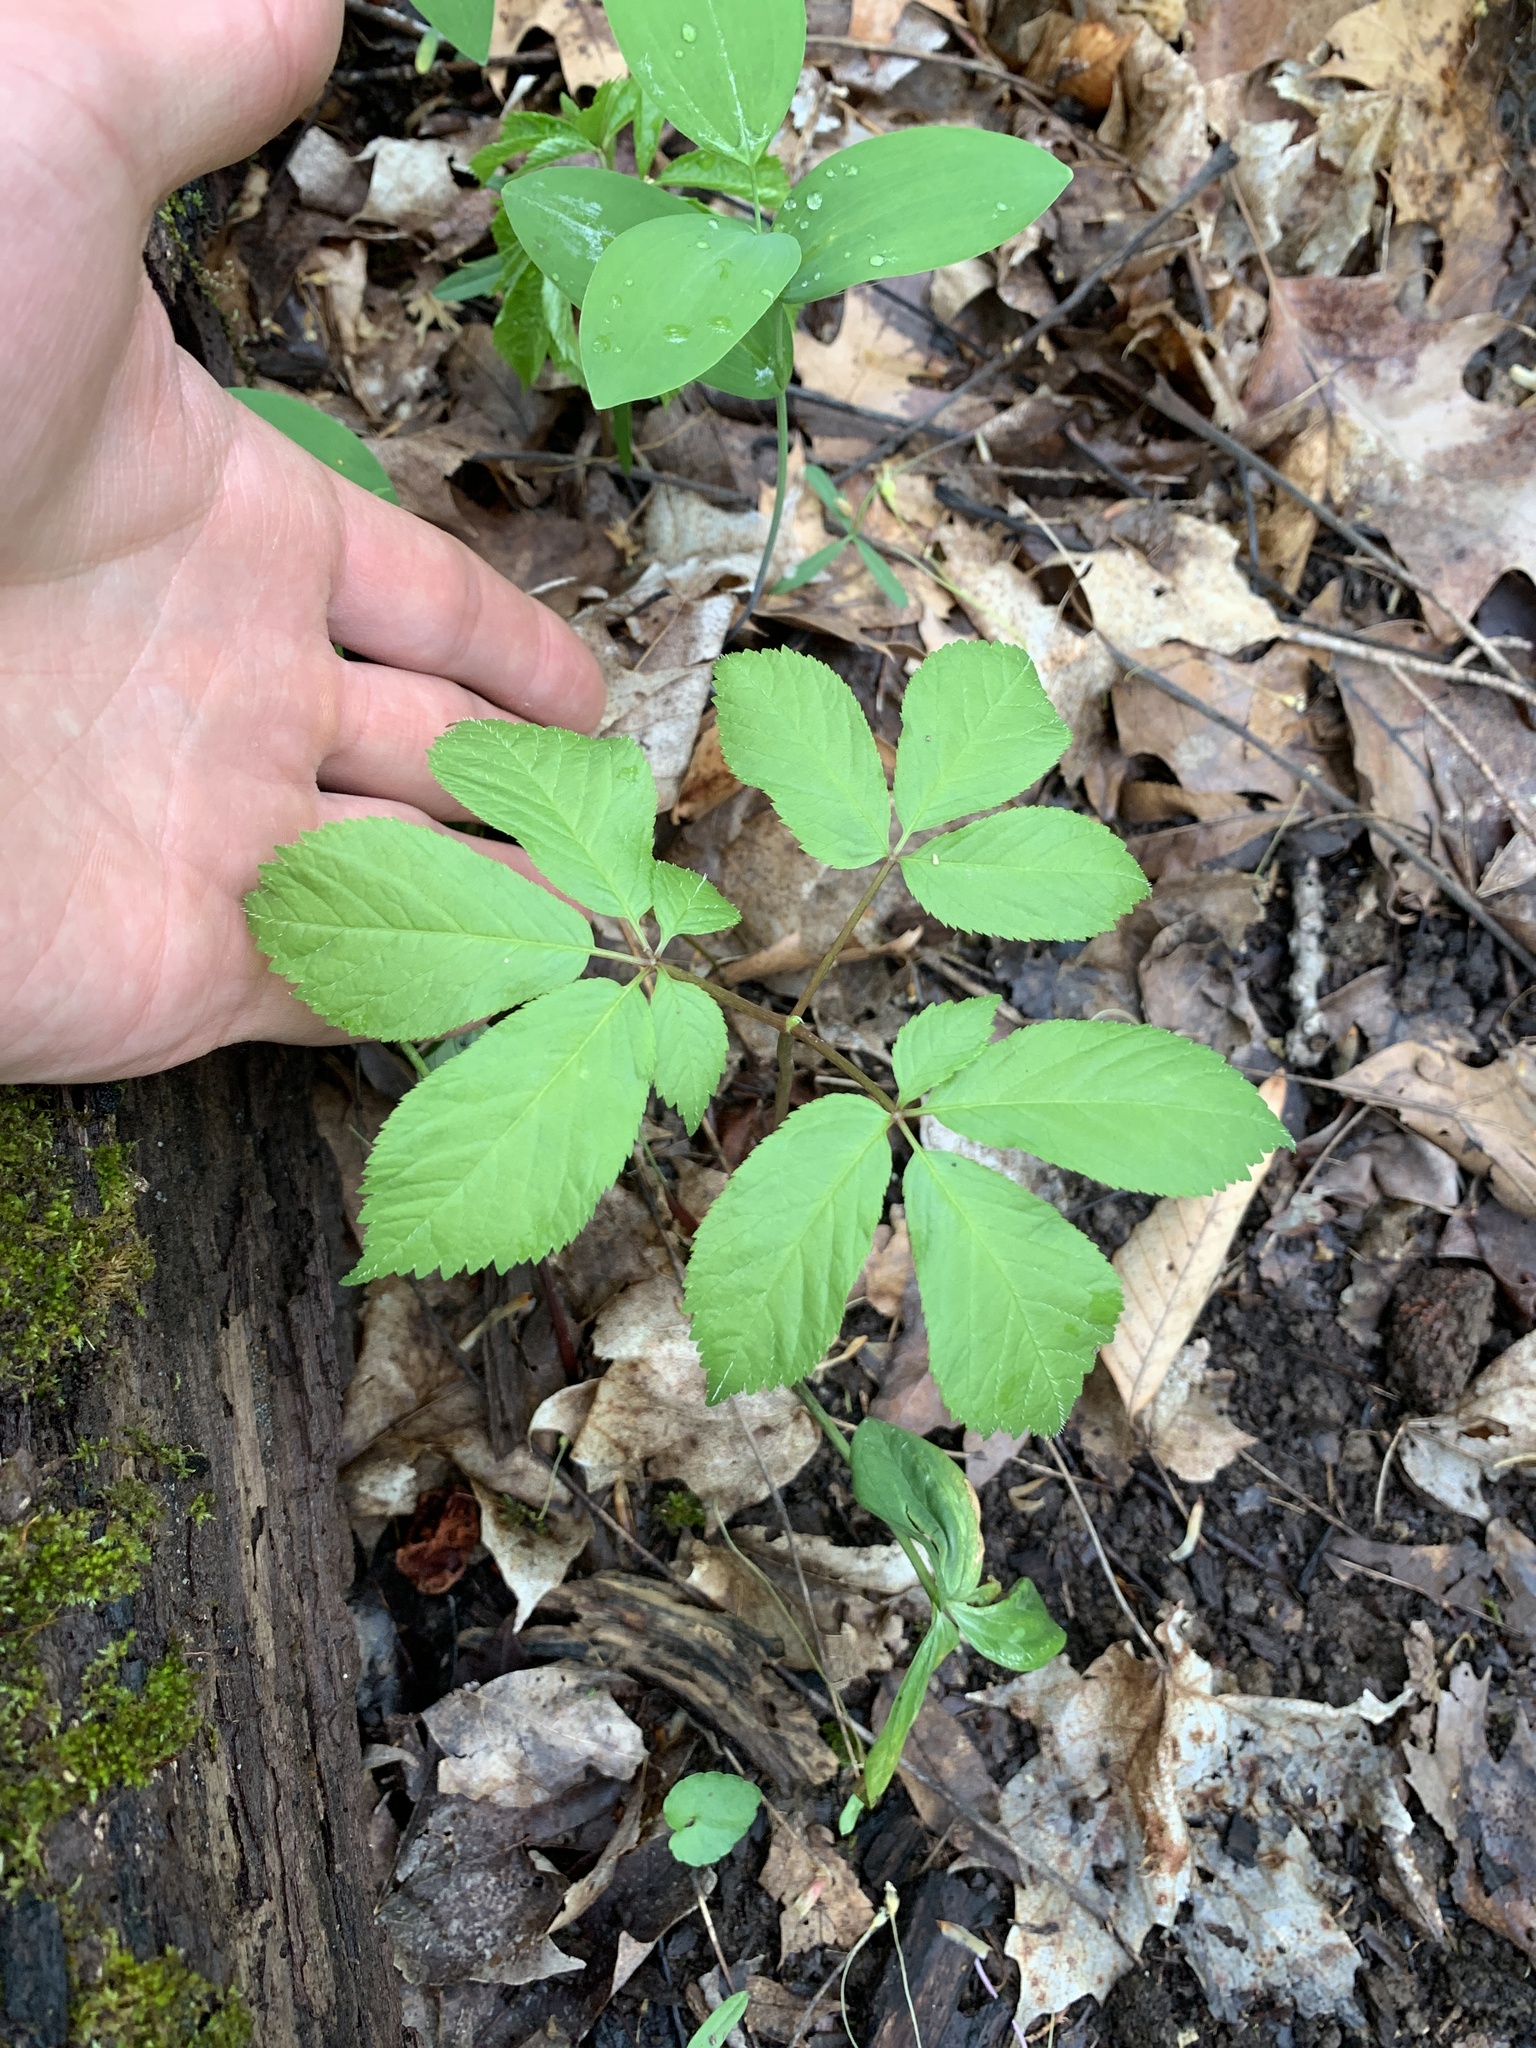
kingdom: Plantae
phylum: Tracheophyta
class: Magnoliopsida
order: Apiales
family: Araliaceae
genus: Panax
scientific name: Panax quinquefolius
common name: American ginseng
